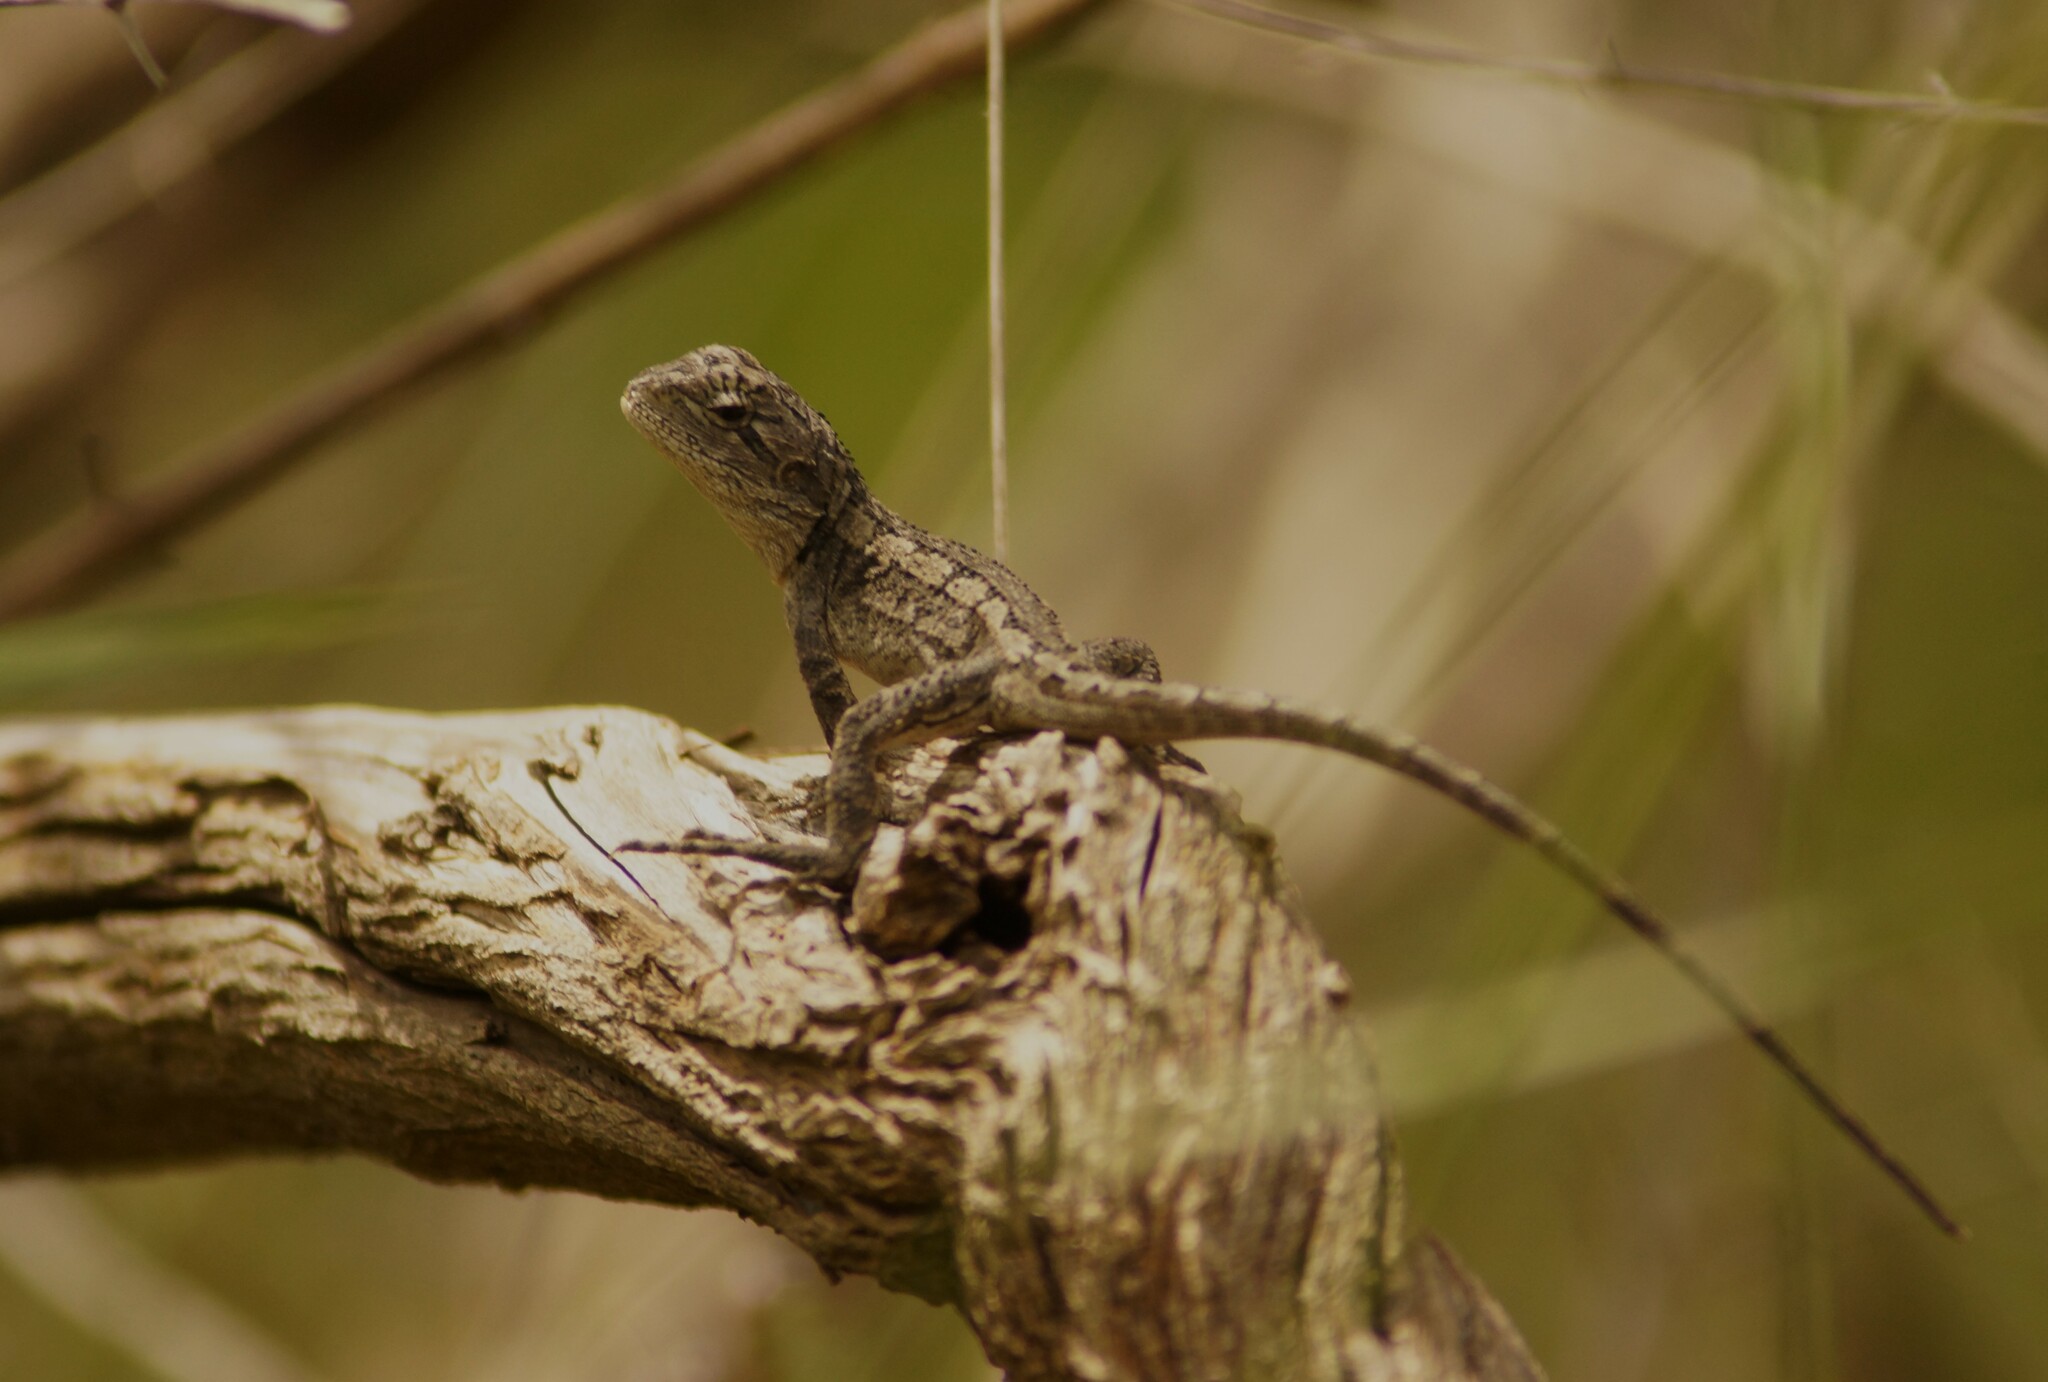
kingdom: Animalia
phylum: Chordata
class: Squamata
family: Agamidae
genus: Amphibolurus
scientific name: Amphibolurus muricatus
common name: Jacky lizard
